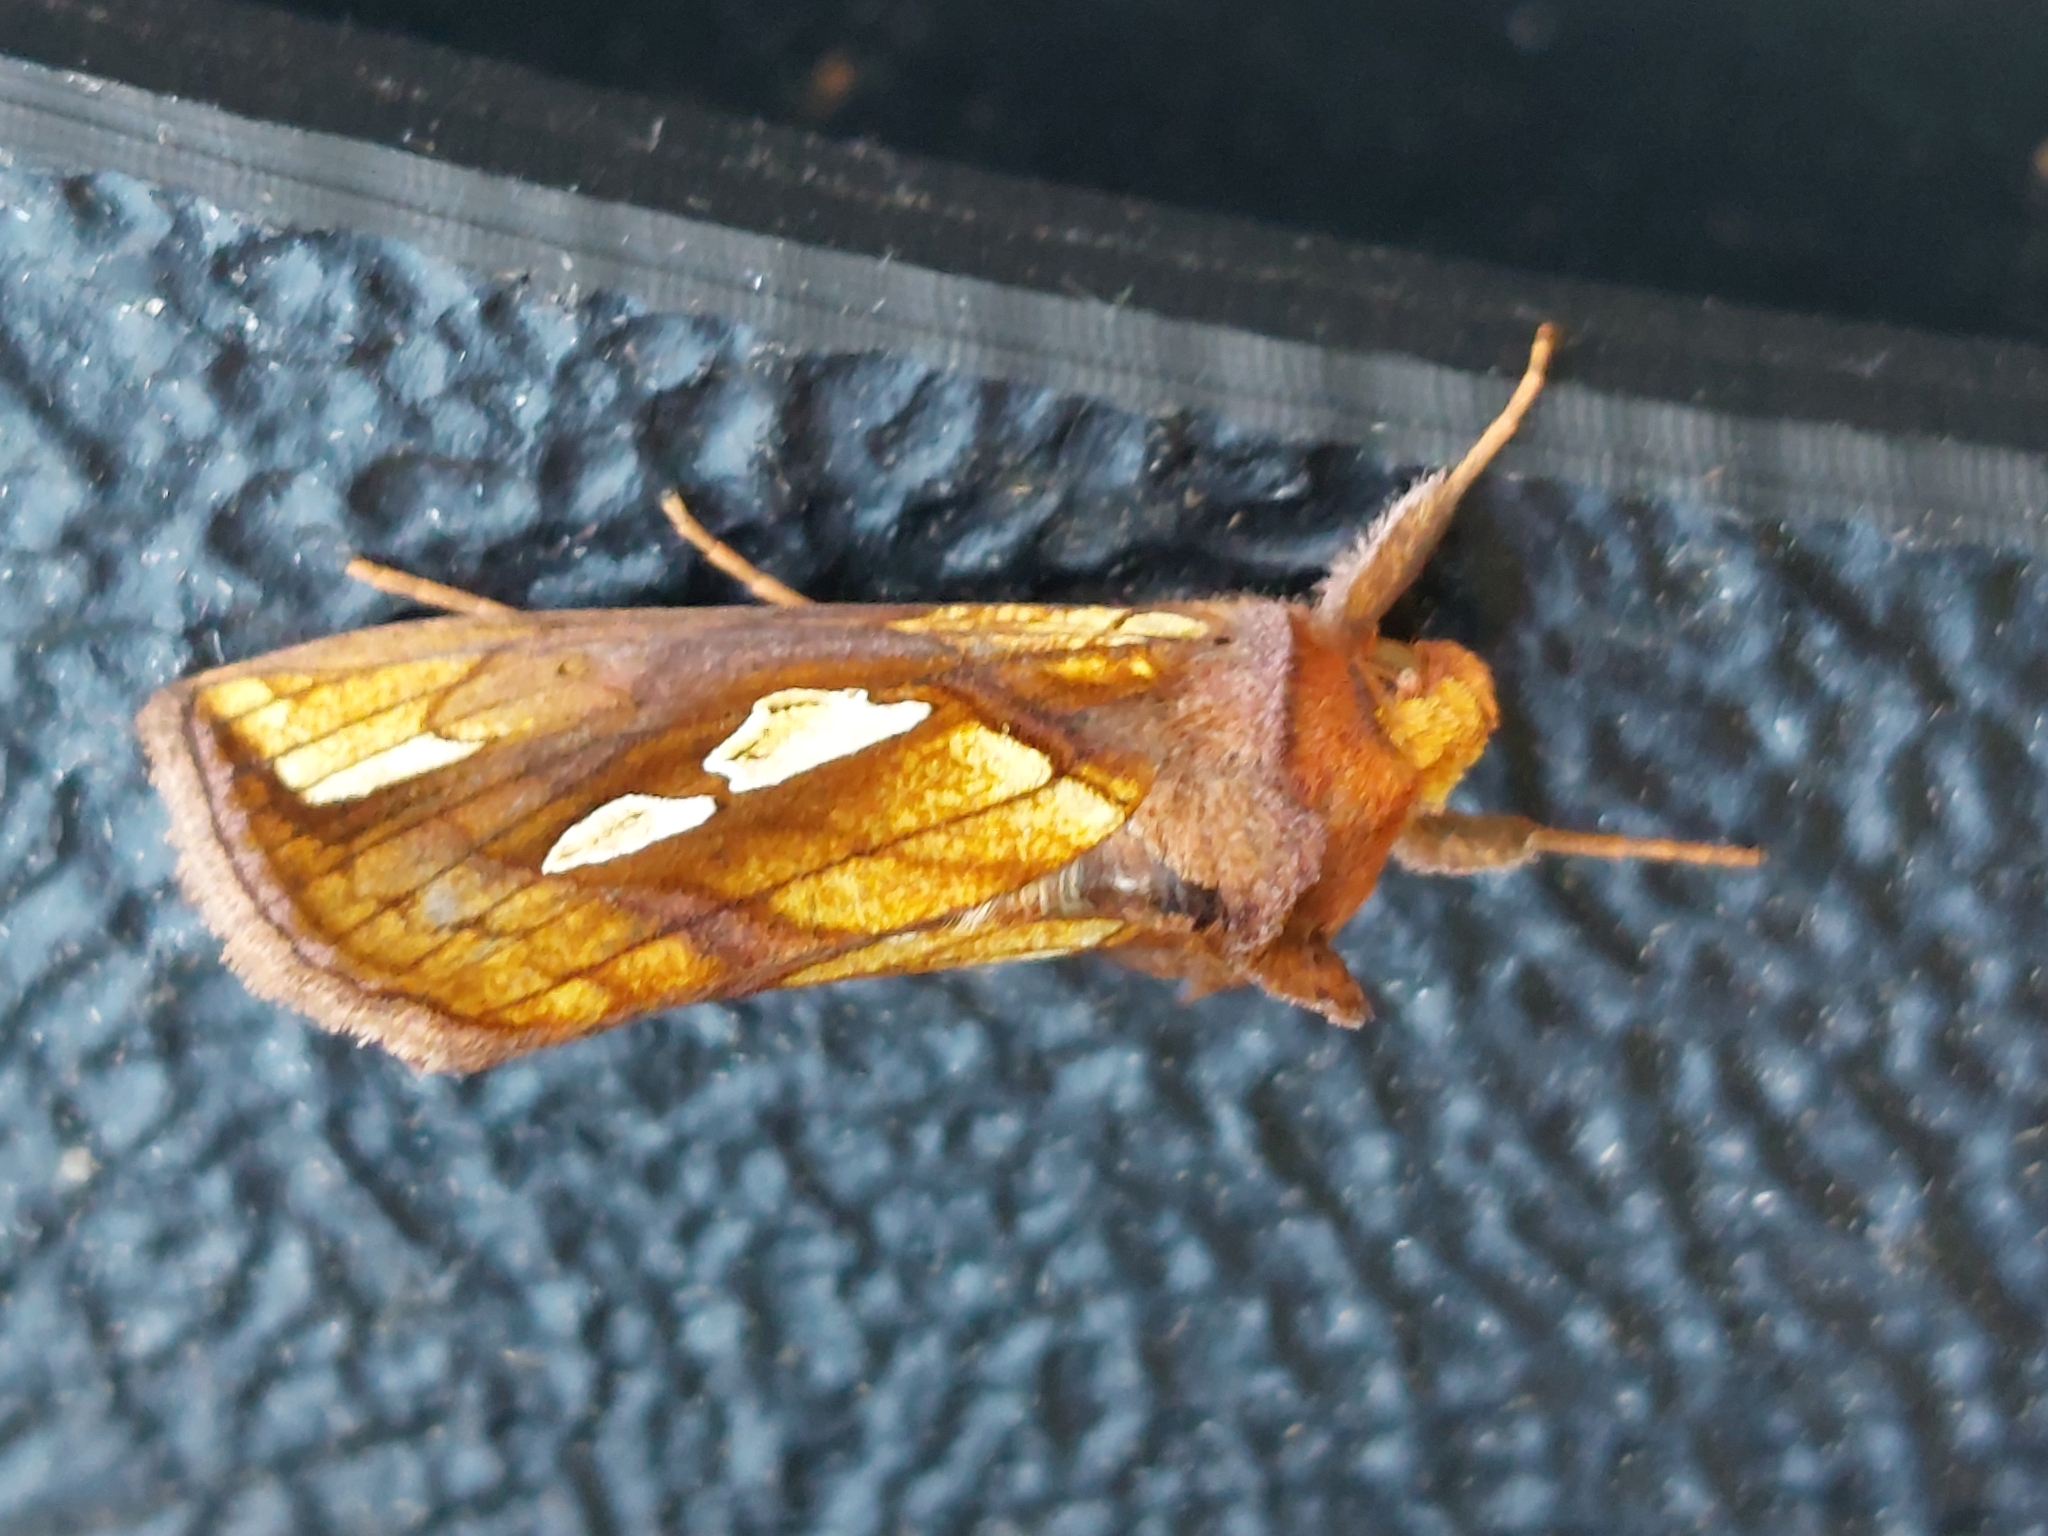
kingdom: Animalia
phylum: Arthropoda
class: Insecta
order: Lepidoptera
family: Noctuidae
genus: Plusia
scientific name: Plusia festucae
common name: Gold spot
